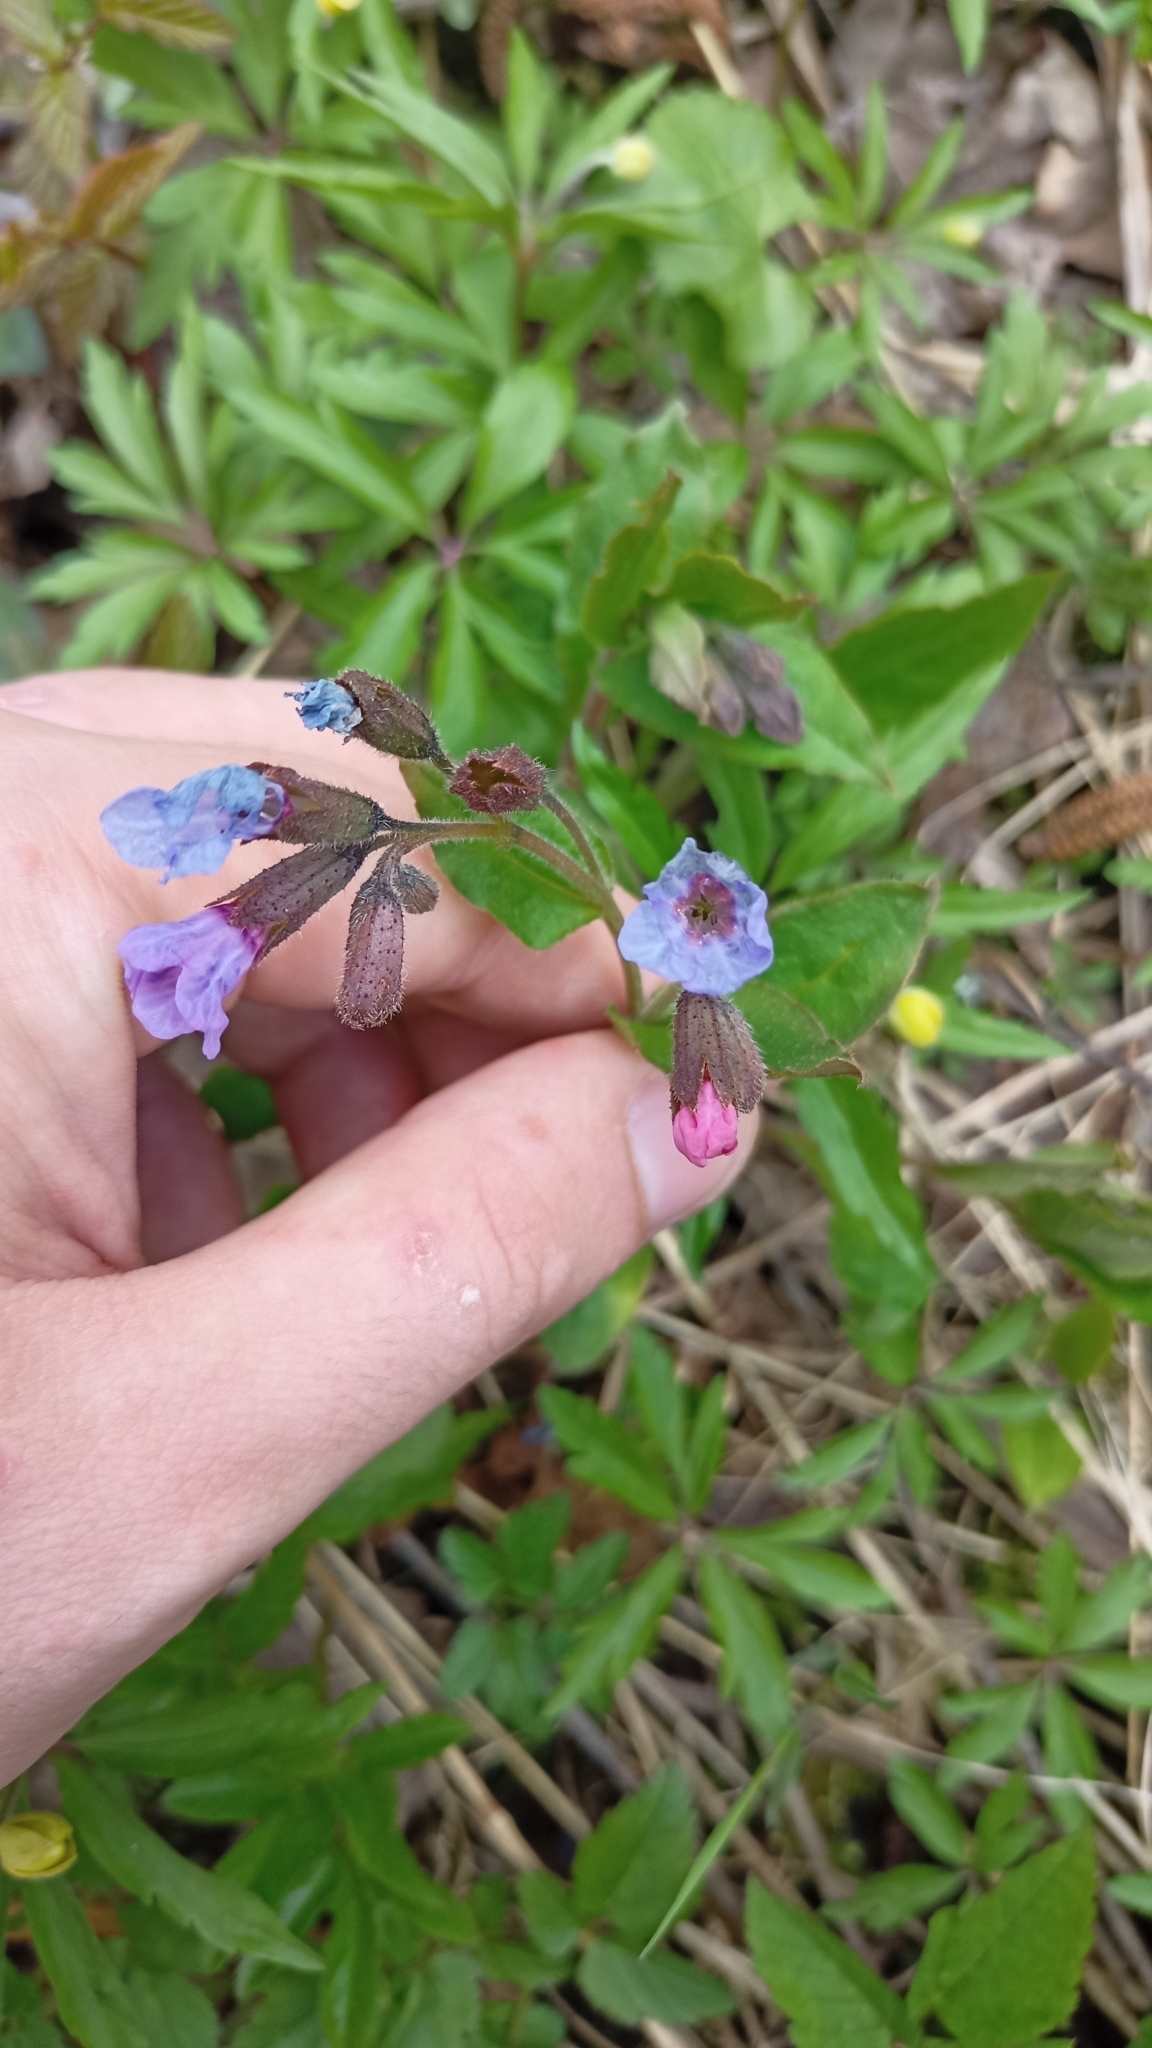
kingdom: Plantae
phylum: Tracheophyta
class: Magnoliopsida
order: Boraginales
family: Boraginaceae
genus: Pulmonaria
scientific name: Pulmonaria obscura
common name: Suffolk lungwort
